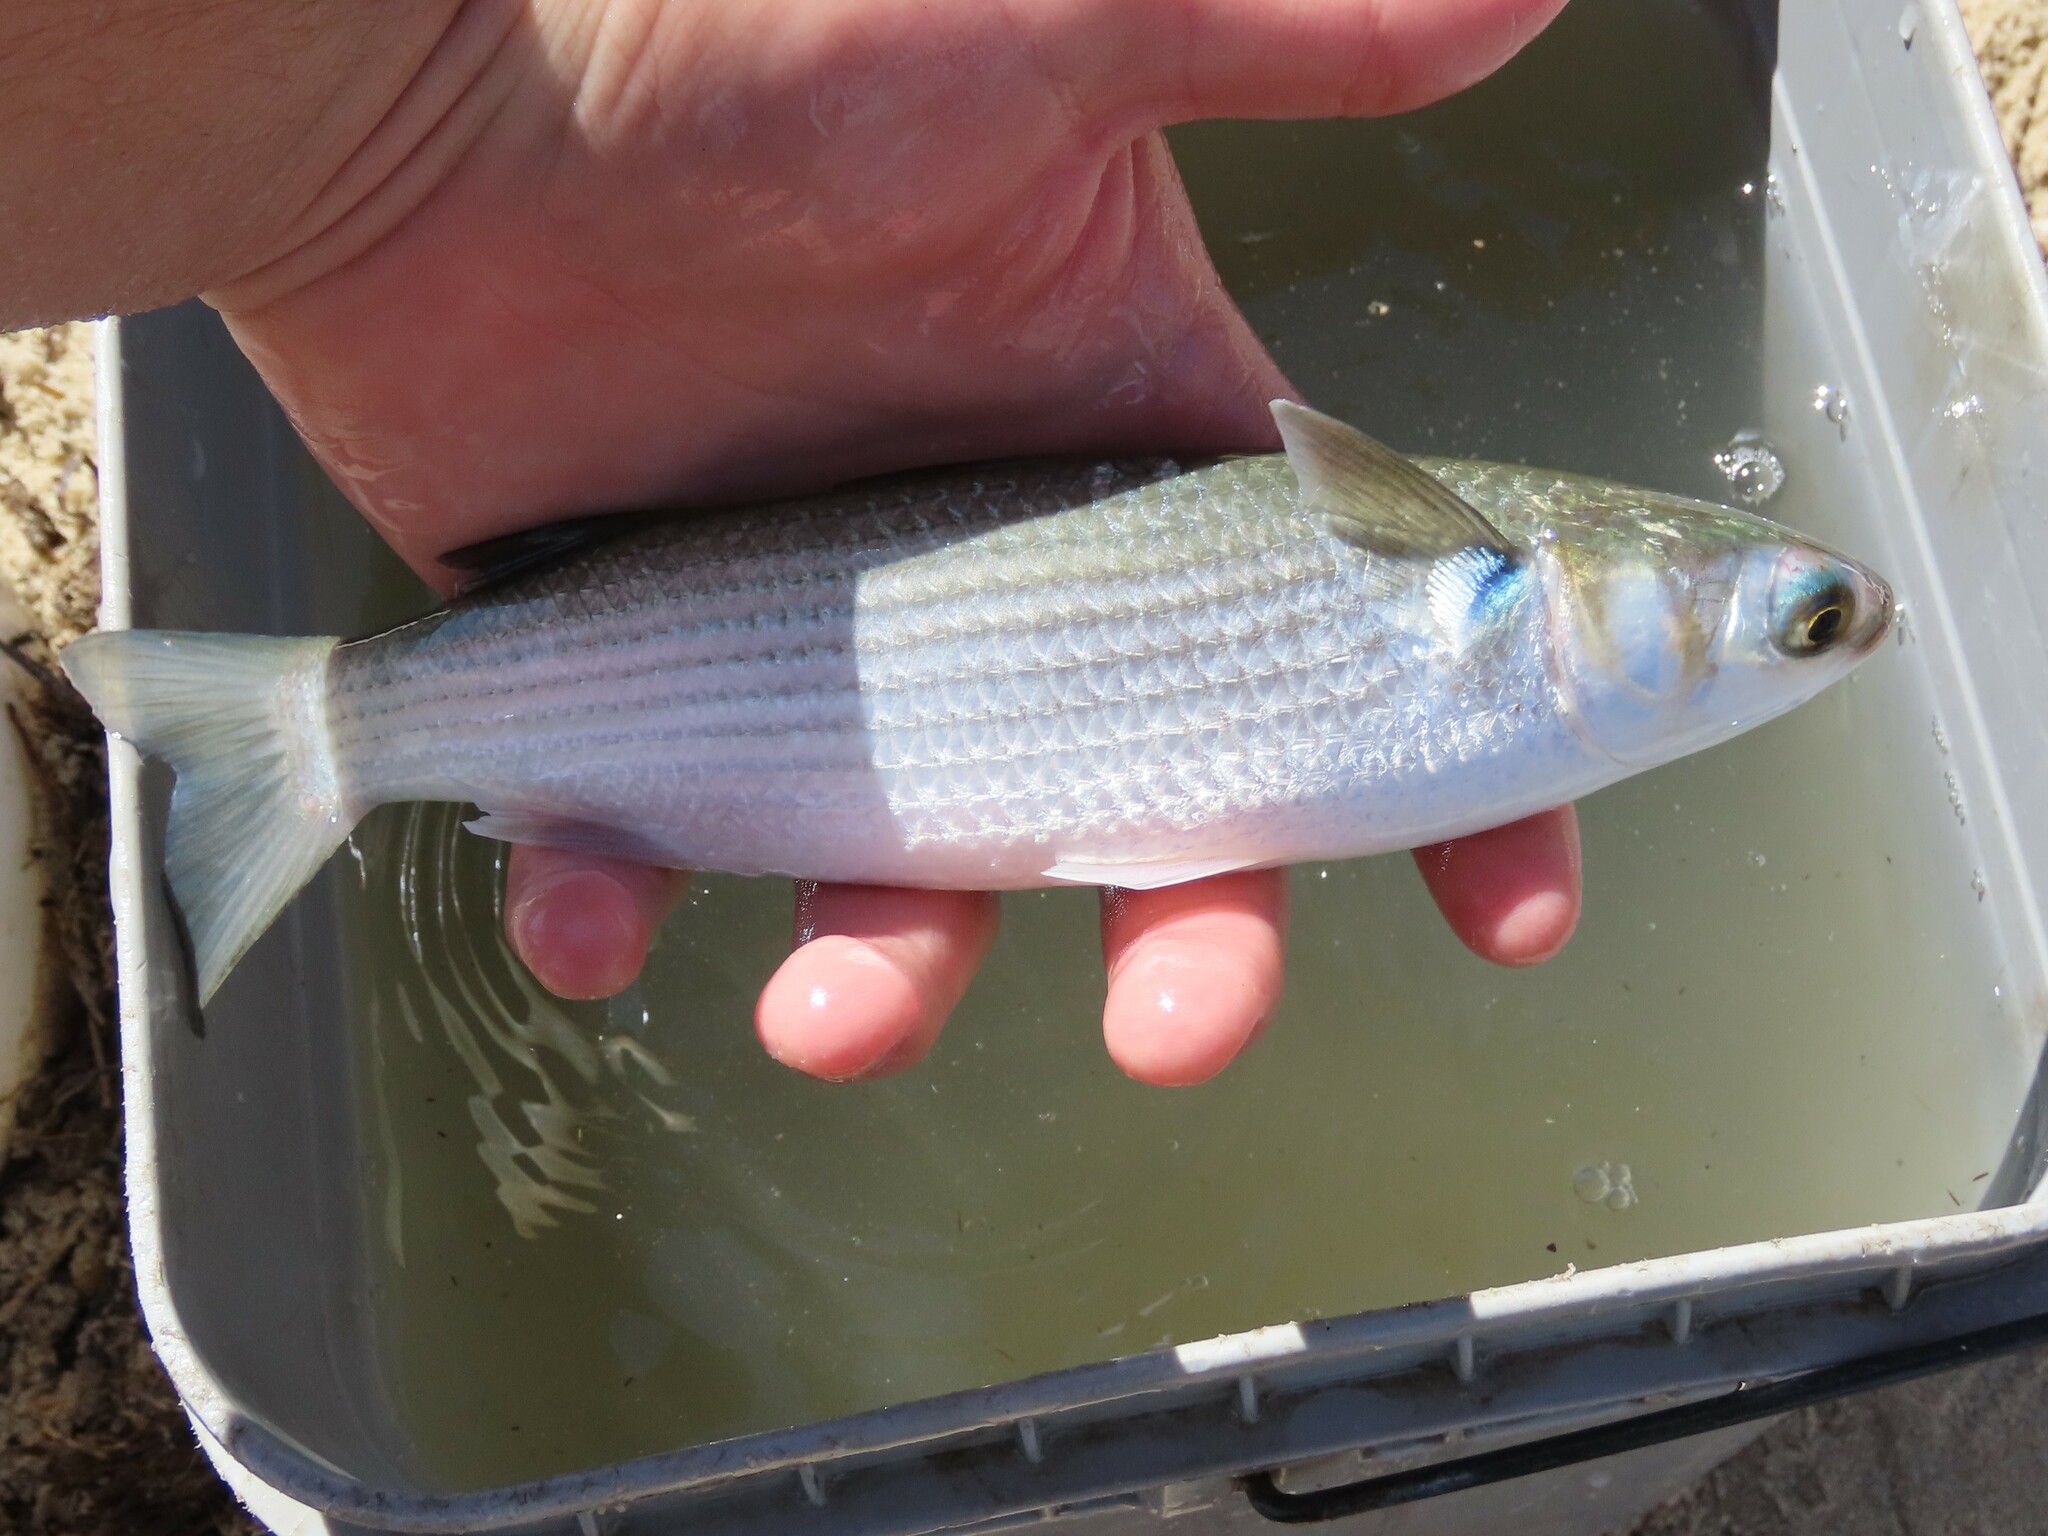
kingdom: Animalia
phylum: Chordata
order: Mugiliformes
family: Mugilidae
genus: Mugil
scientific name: Mugil cephalus
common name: Grey mullet
